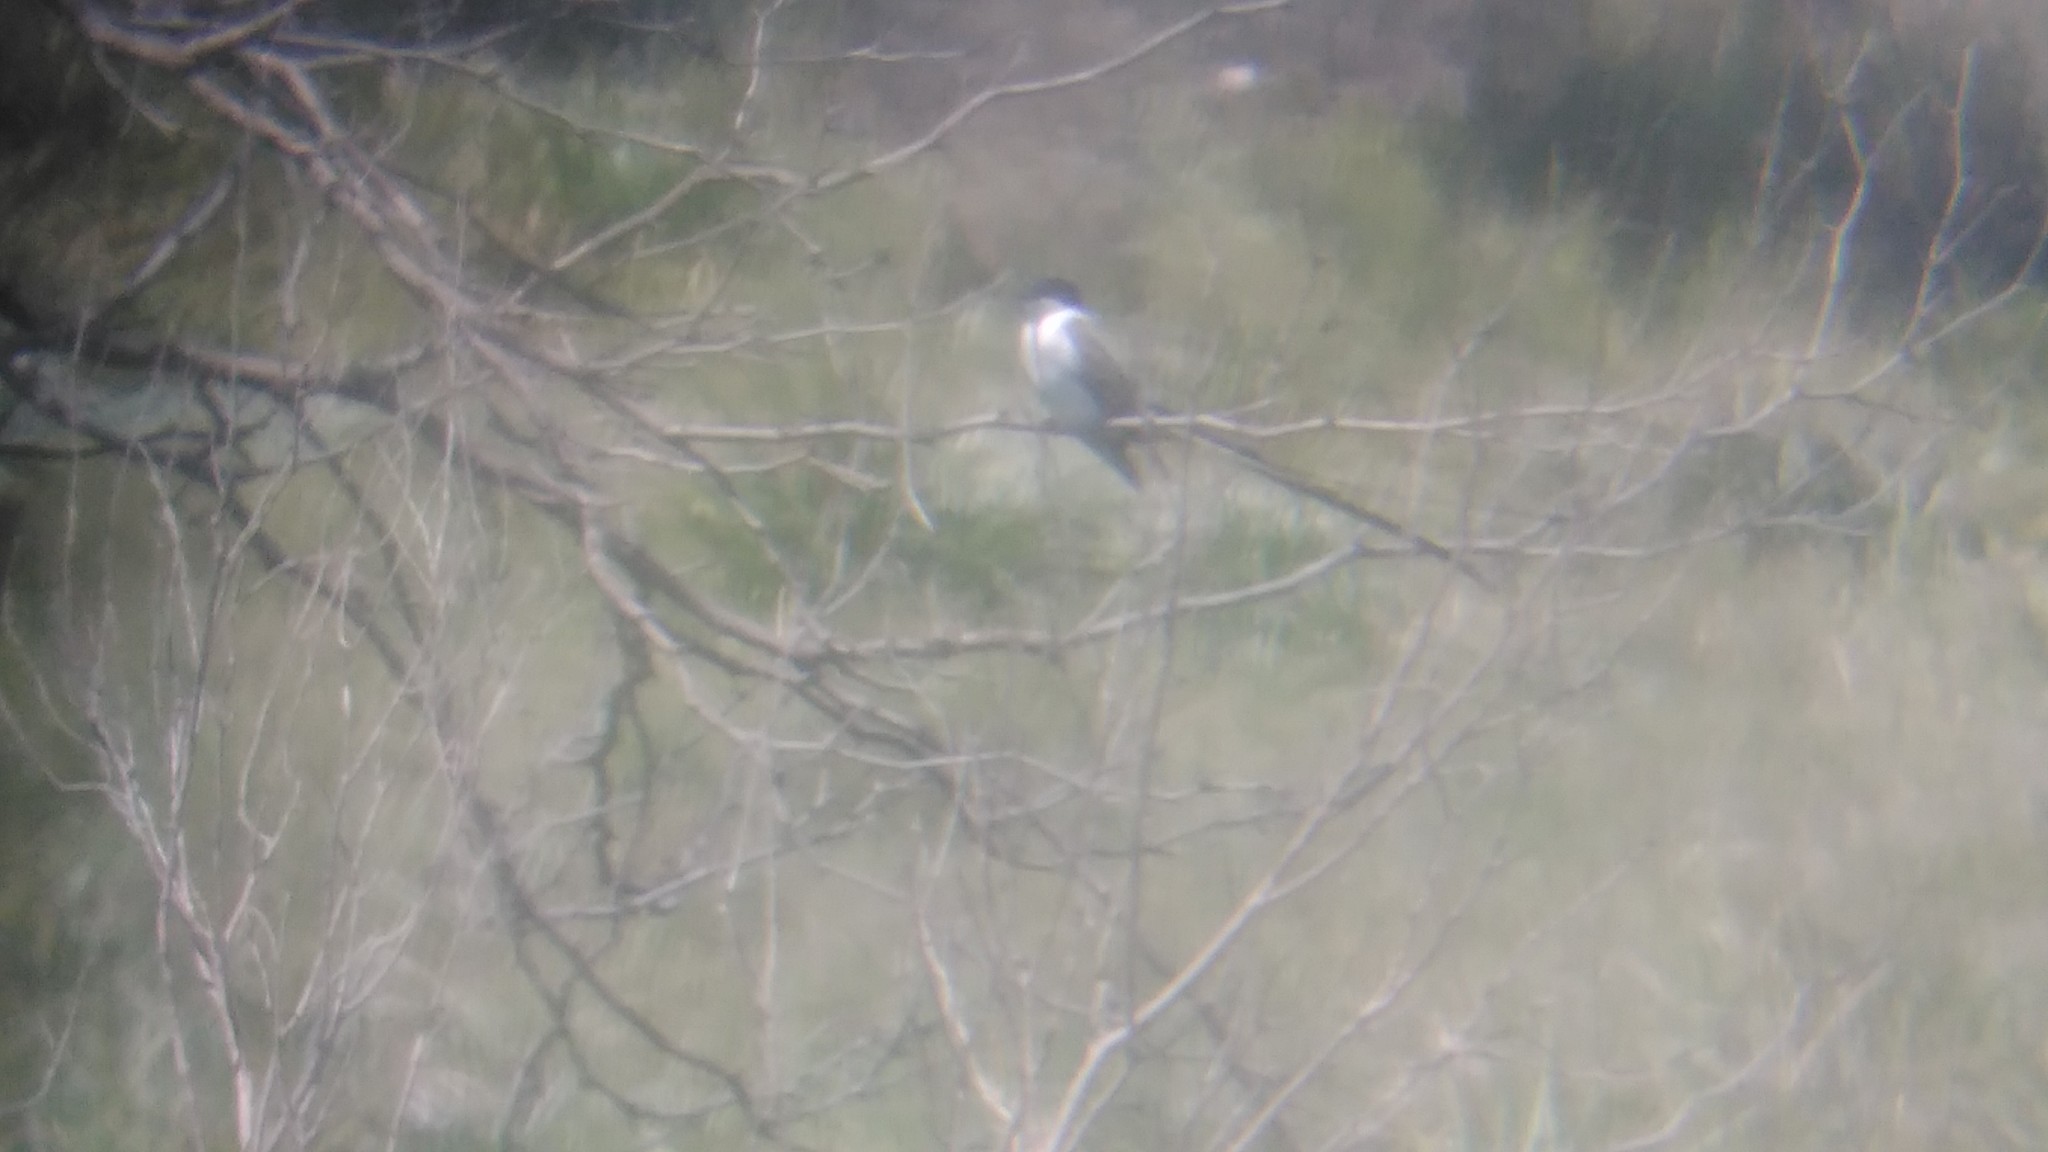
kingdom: Animalia
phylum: Chordata
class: Aves
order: Passeriformes
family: Tyrannidae
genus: Tyrannus
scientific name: Tyrannus savana
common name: Fork-tailed flycatcher
